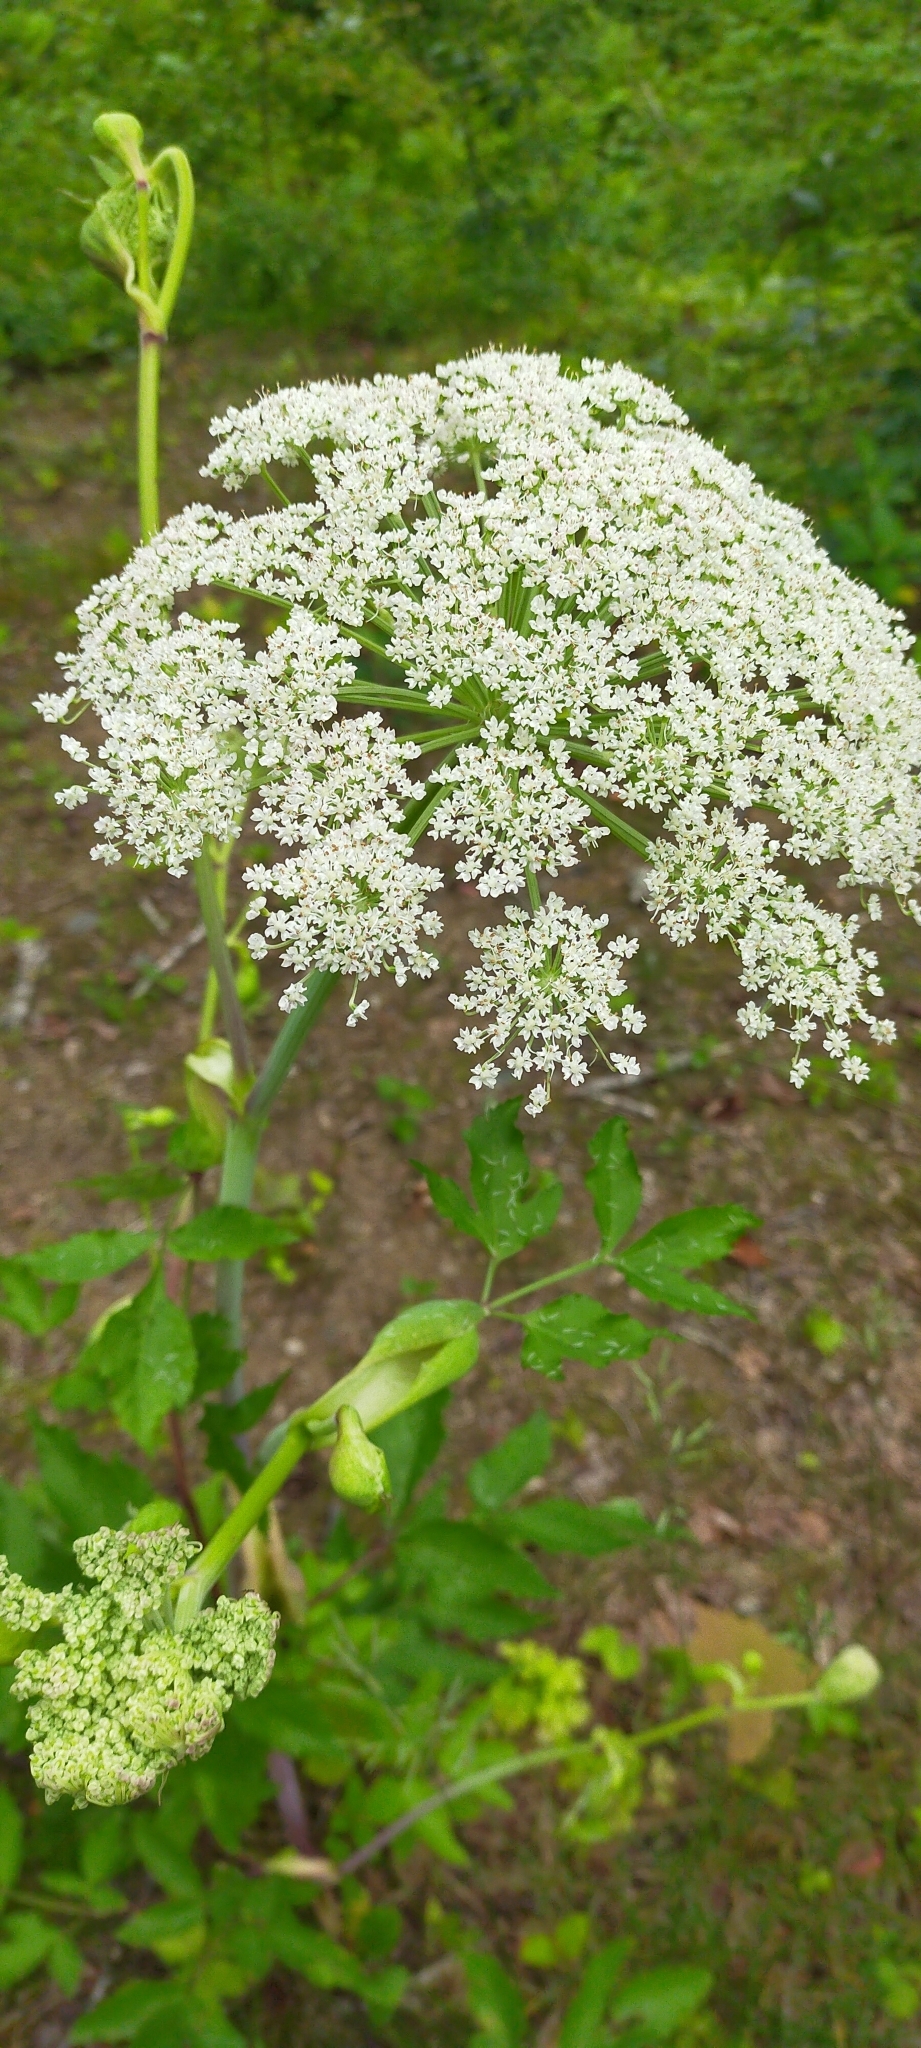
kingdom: Plantae
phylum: Tracheophyta
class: Magnoliopsida
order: Apiales
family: Apiaceae
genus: Angelica
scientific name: Angelica dahurica
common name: Dahurian angelica
